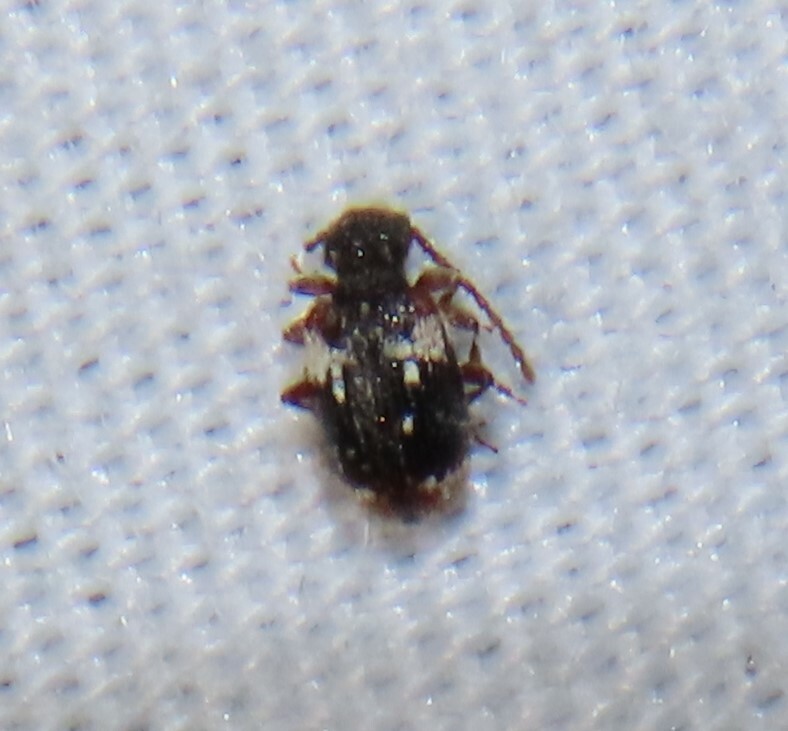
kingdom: Animalia
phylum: Arthropoda
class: Insecta
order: Coleoptera
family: Ptinidae
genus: Ptinus
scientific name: Ptinus bimaculatus
